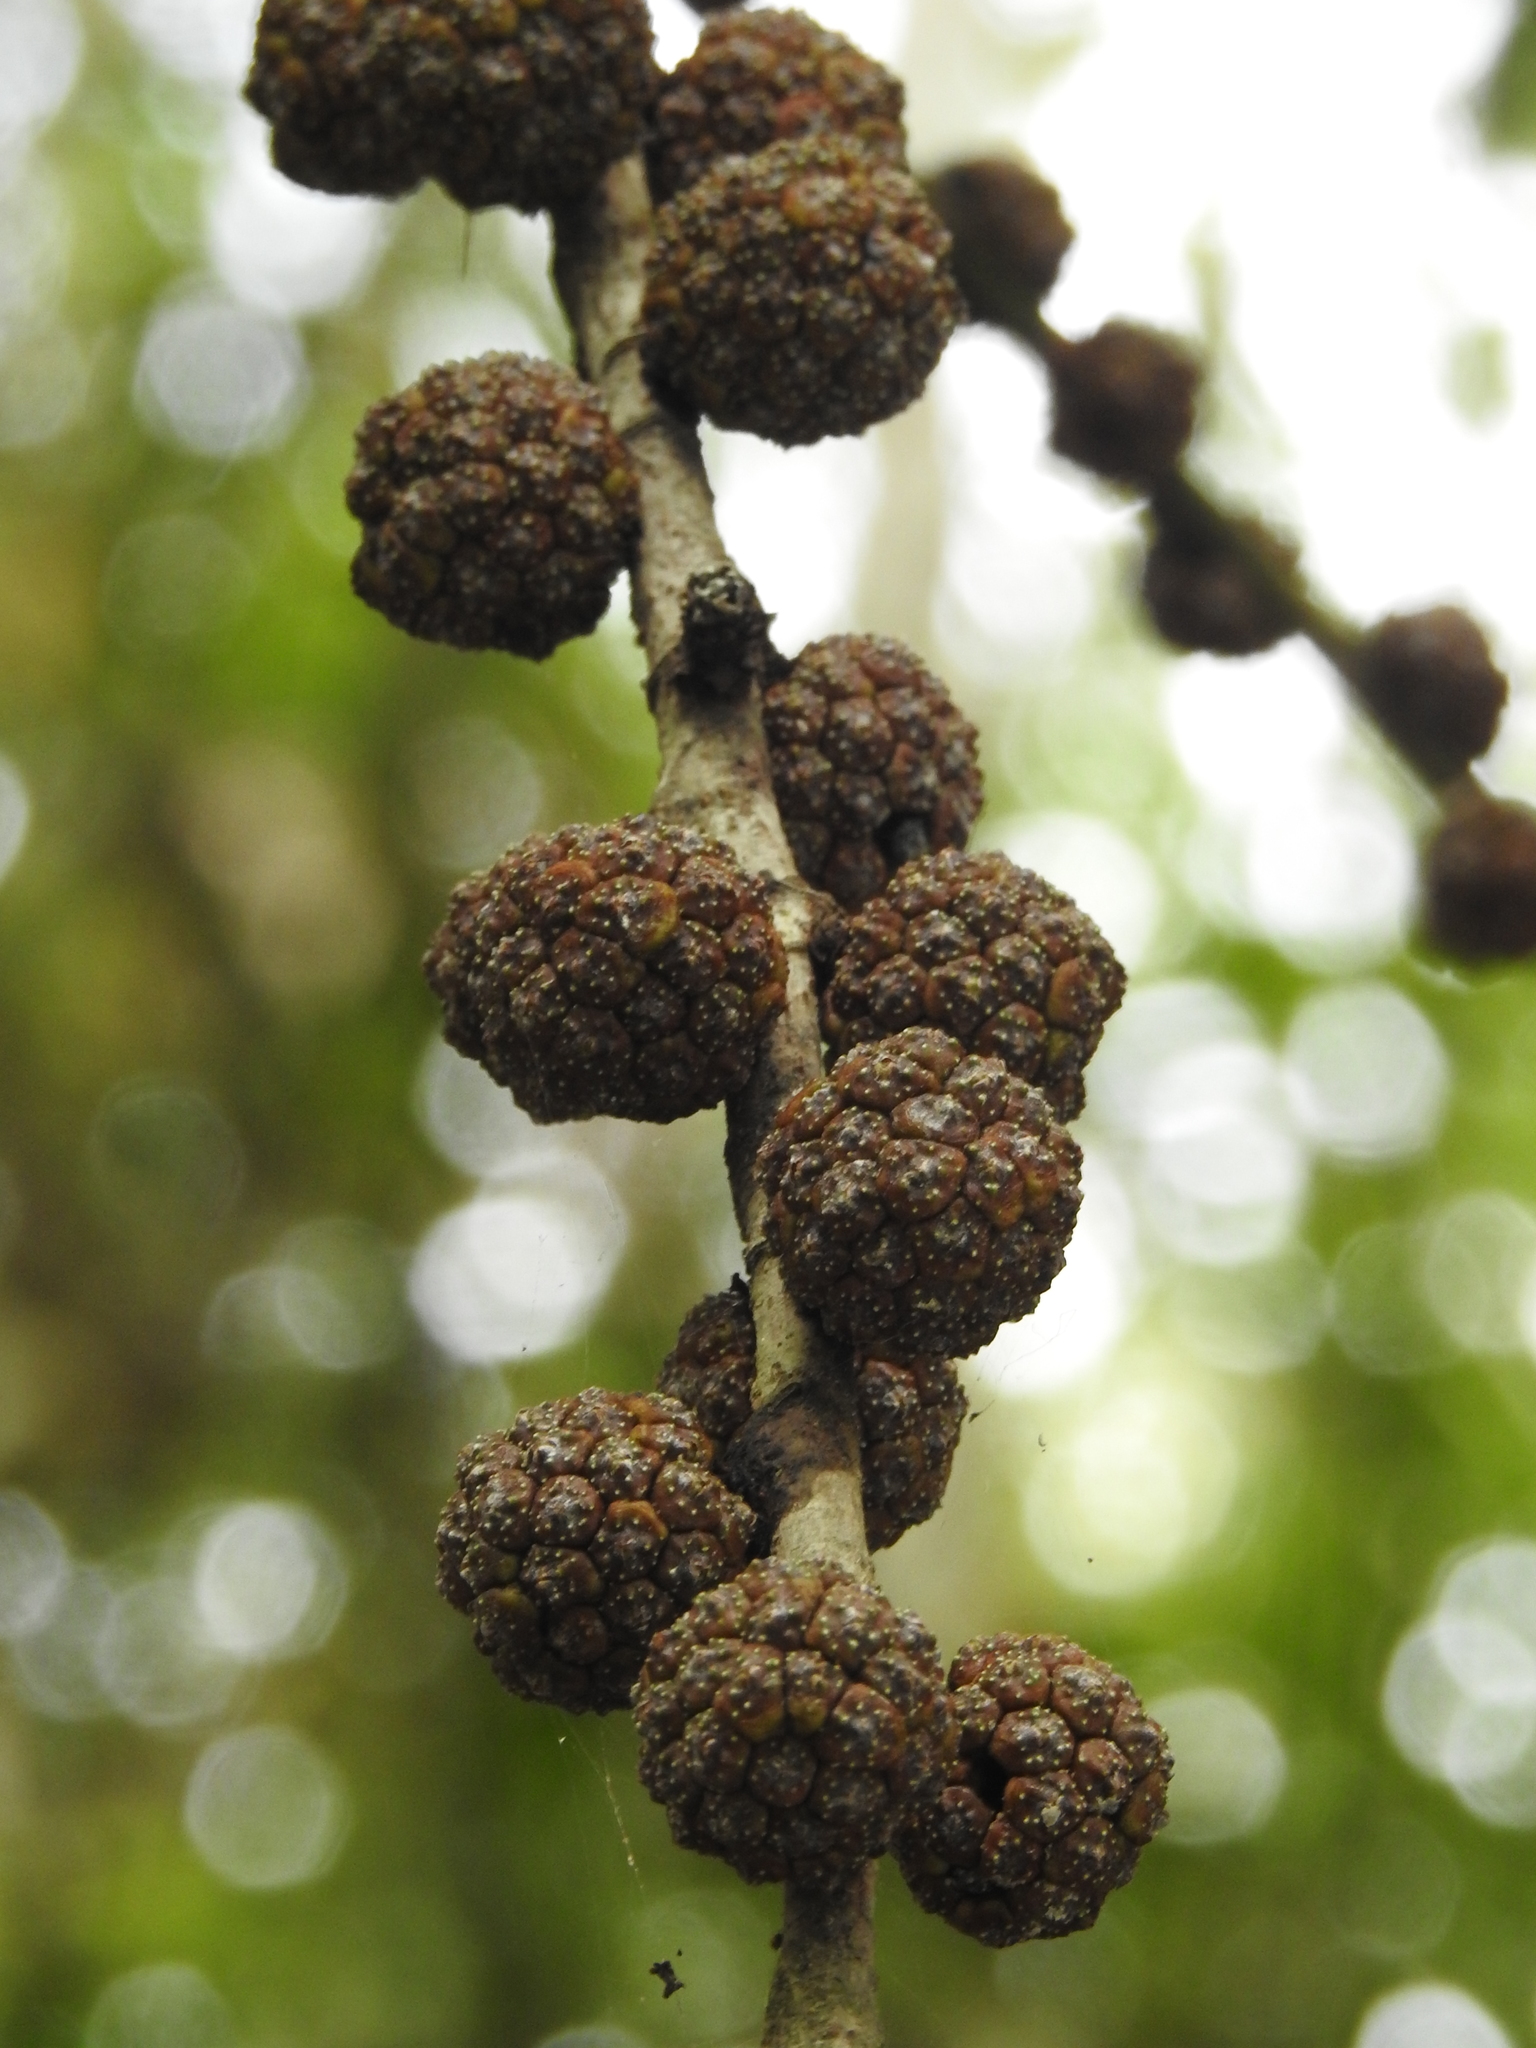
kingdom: Plantae
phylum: Tracheophyta
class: Magnoliopsida
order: Rosales
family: Moraceae
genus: Ficus
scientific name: Ficus minahassae
